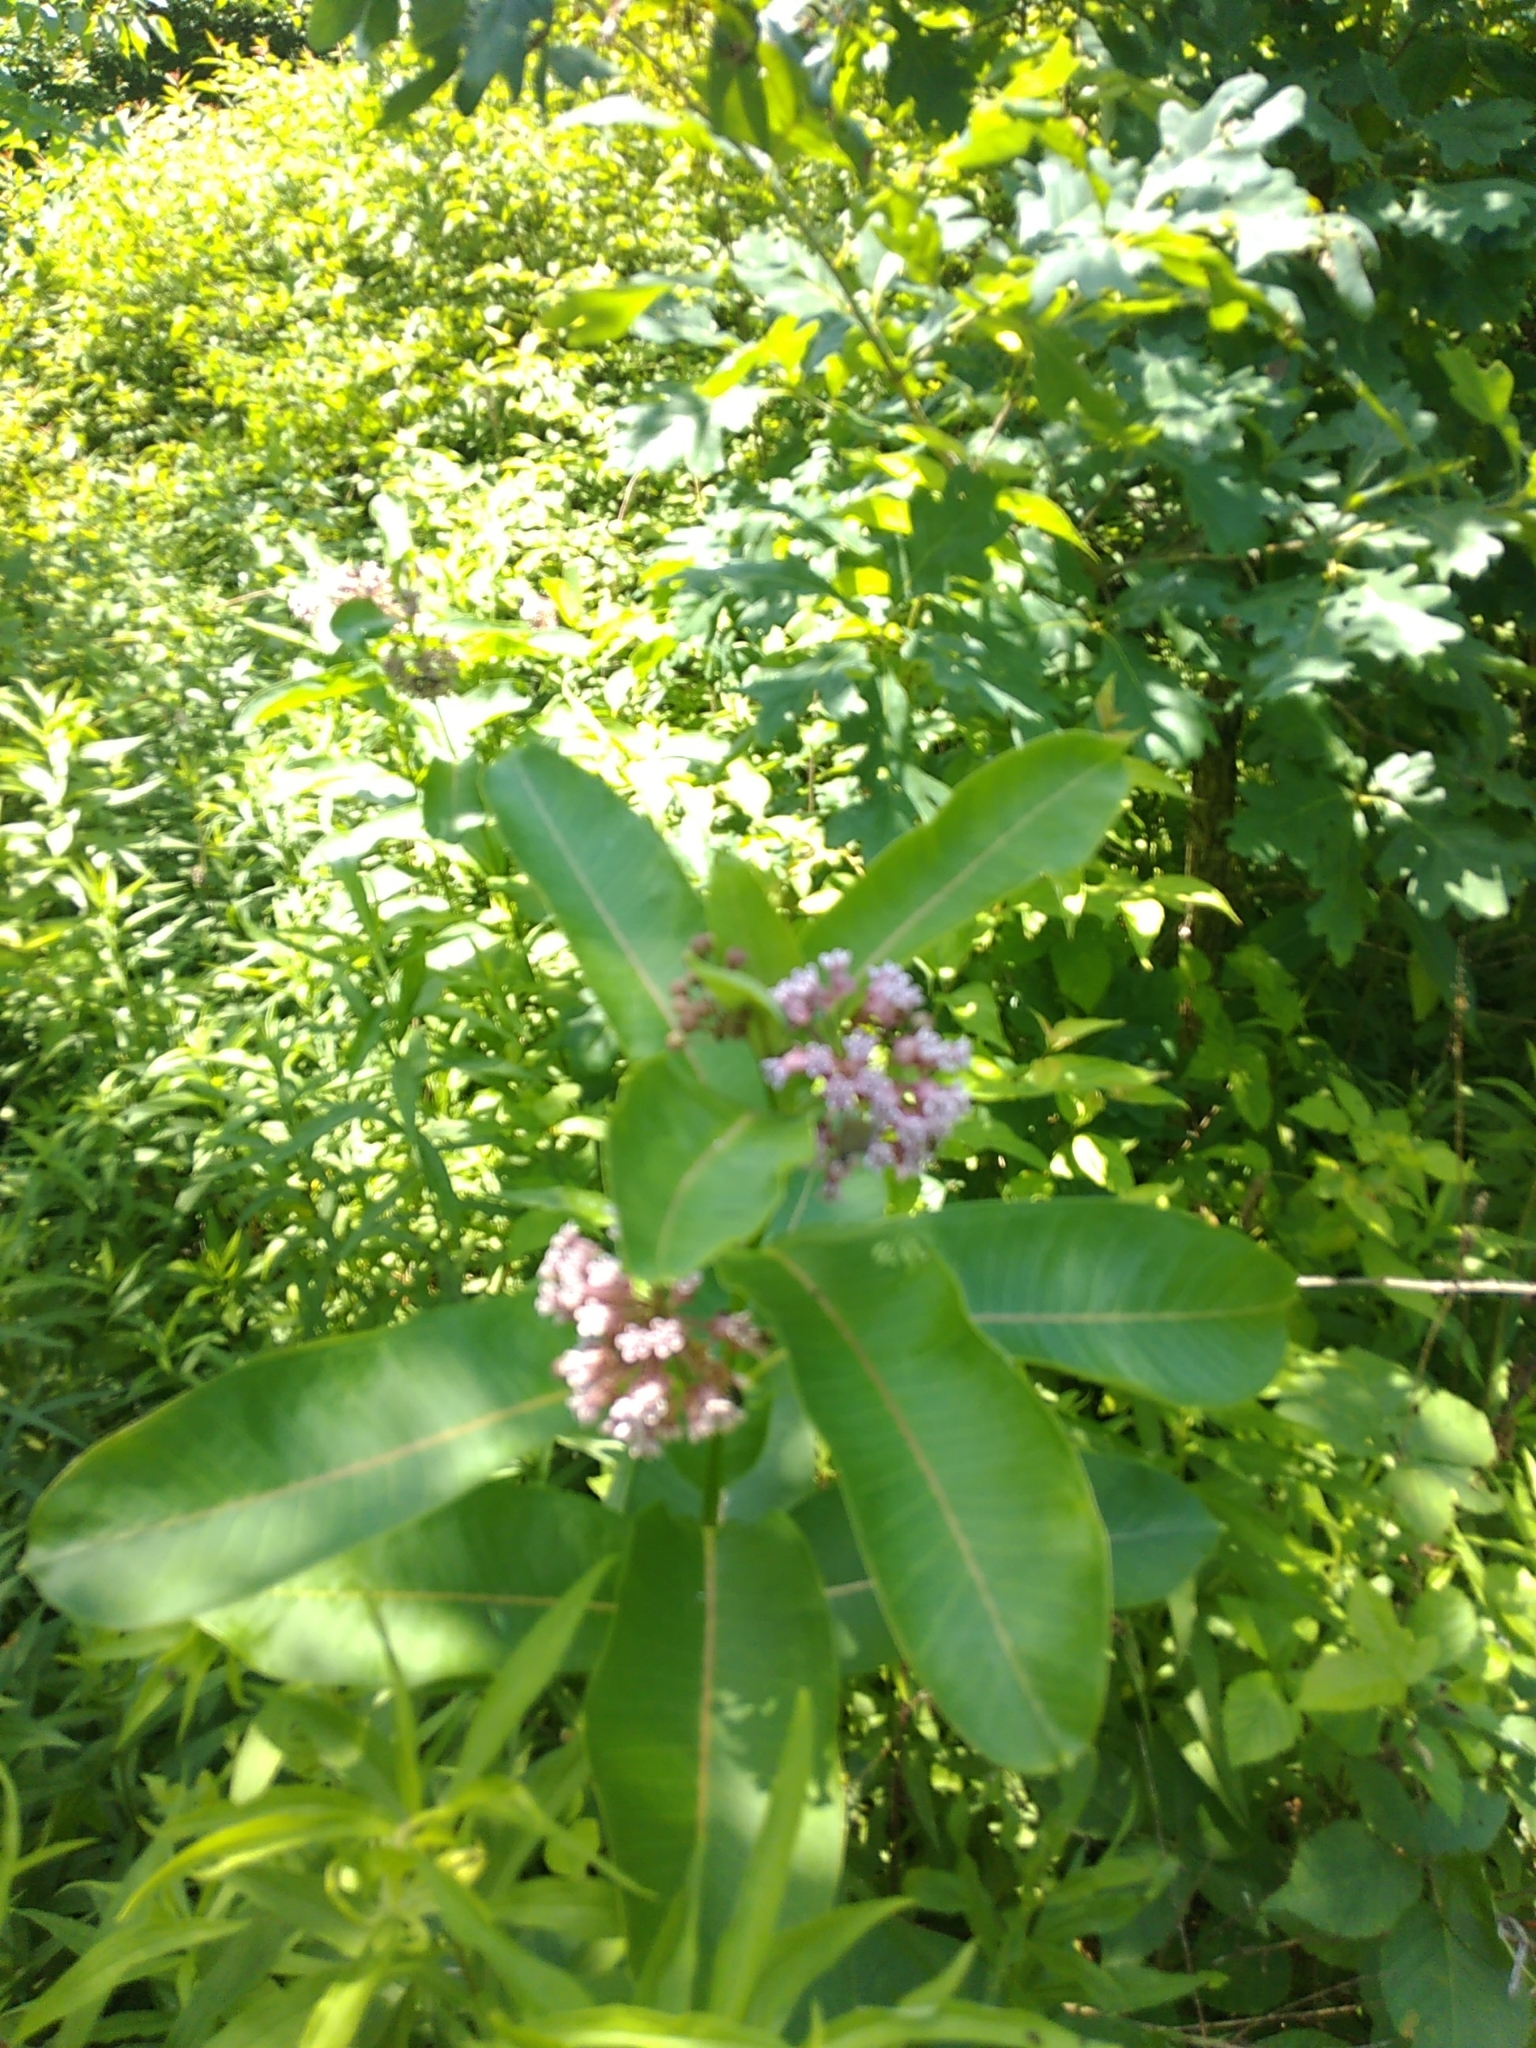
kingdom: Plantae
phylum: Tracheophyta
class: Magnoliopsida
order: Gentianales
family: Apocynaceae
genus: Asclepias
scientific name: Asclepias syriaca
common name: Common milkweed
